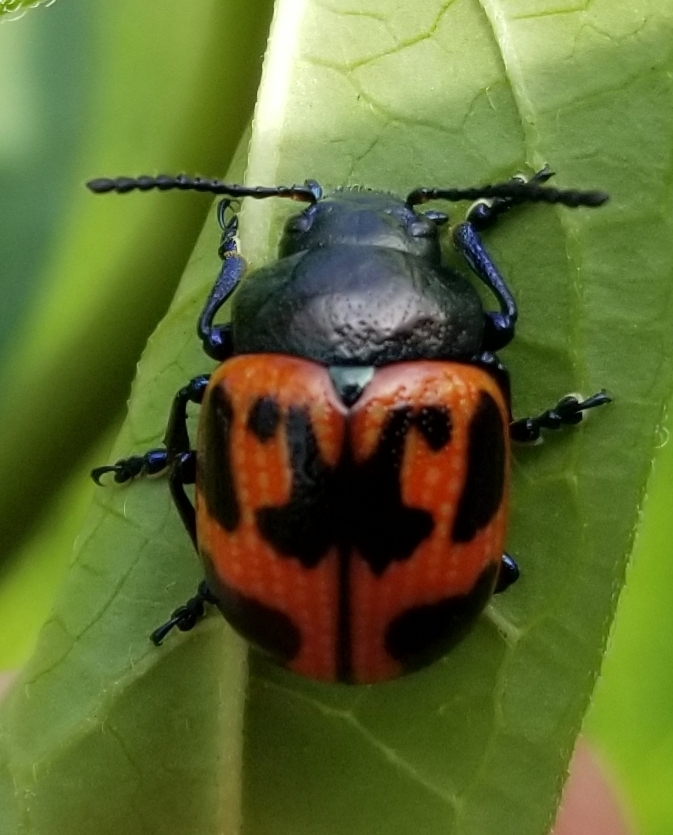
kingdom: Animalia
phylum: Arthropoda
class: Insecta
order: Coleoptera
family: Chrysomelidae
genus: Labidomera
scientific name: Labidomera clivicollis
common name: Swamp milkweed leaf beetle
